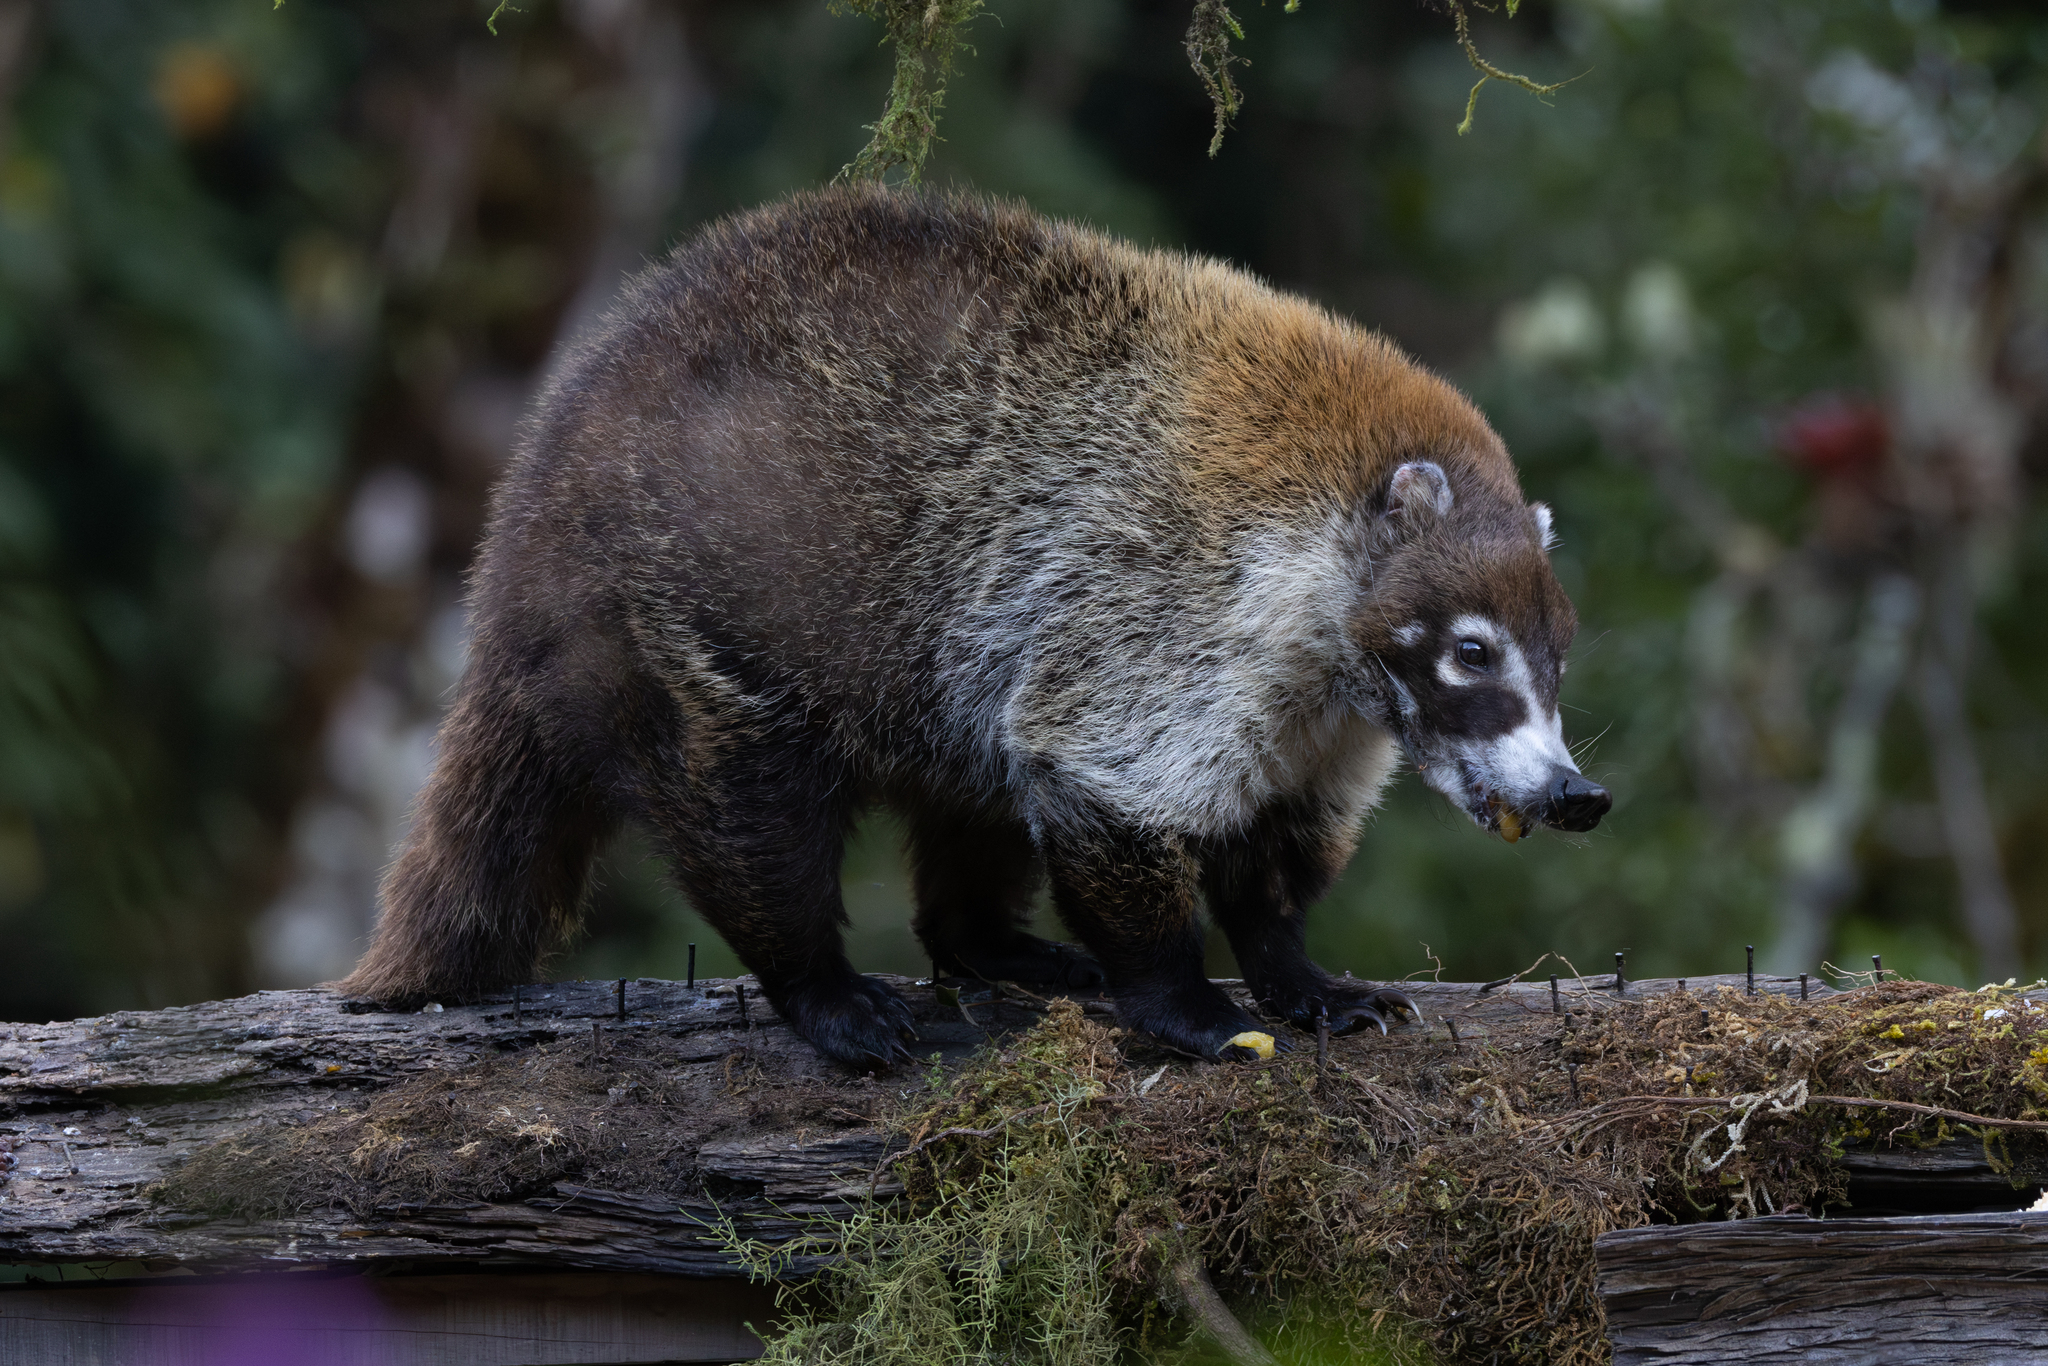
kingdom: Animalia
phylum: Chordata
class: Mammalia
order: Carnivora
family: Procyonidae
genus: Nasua
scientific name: Nasua narica
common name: White-nosed coati
